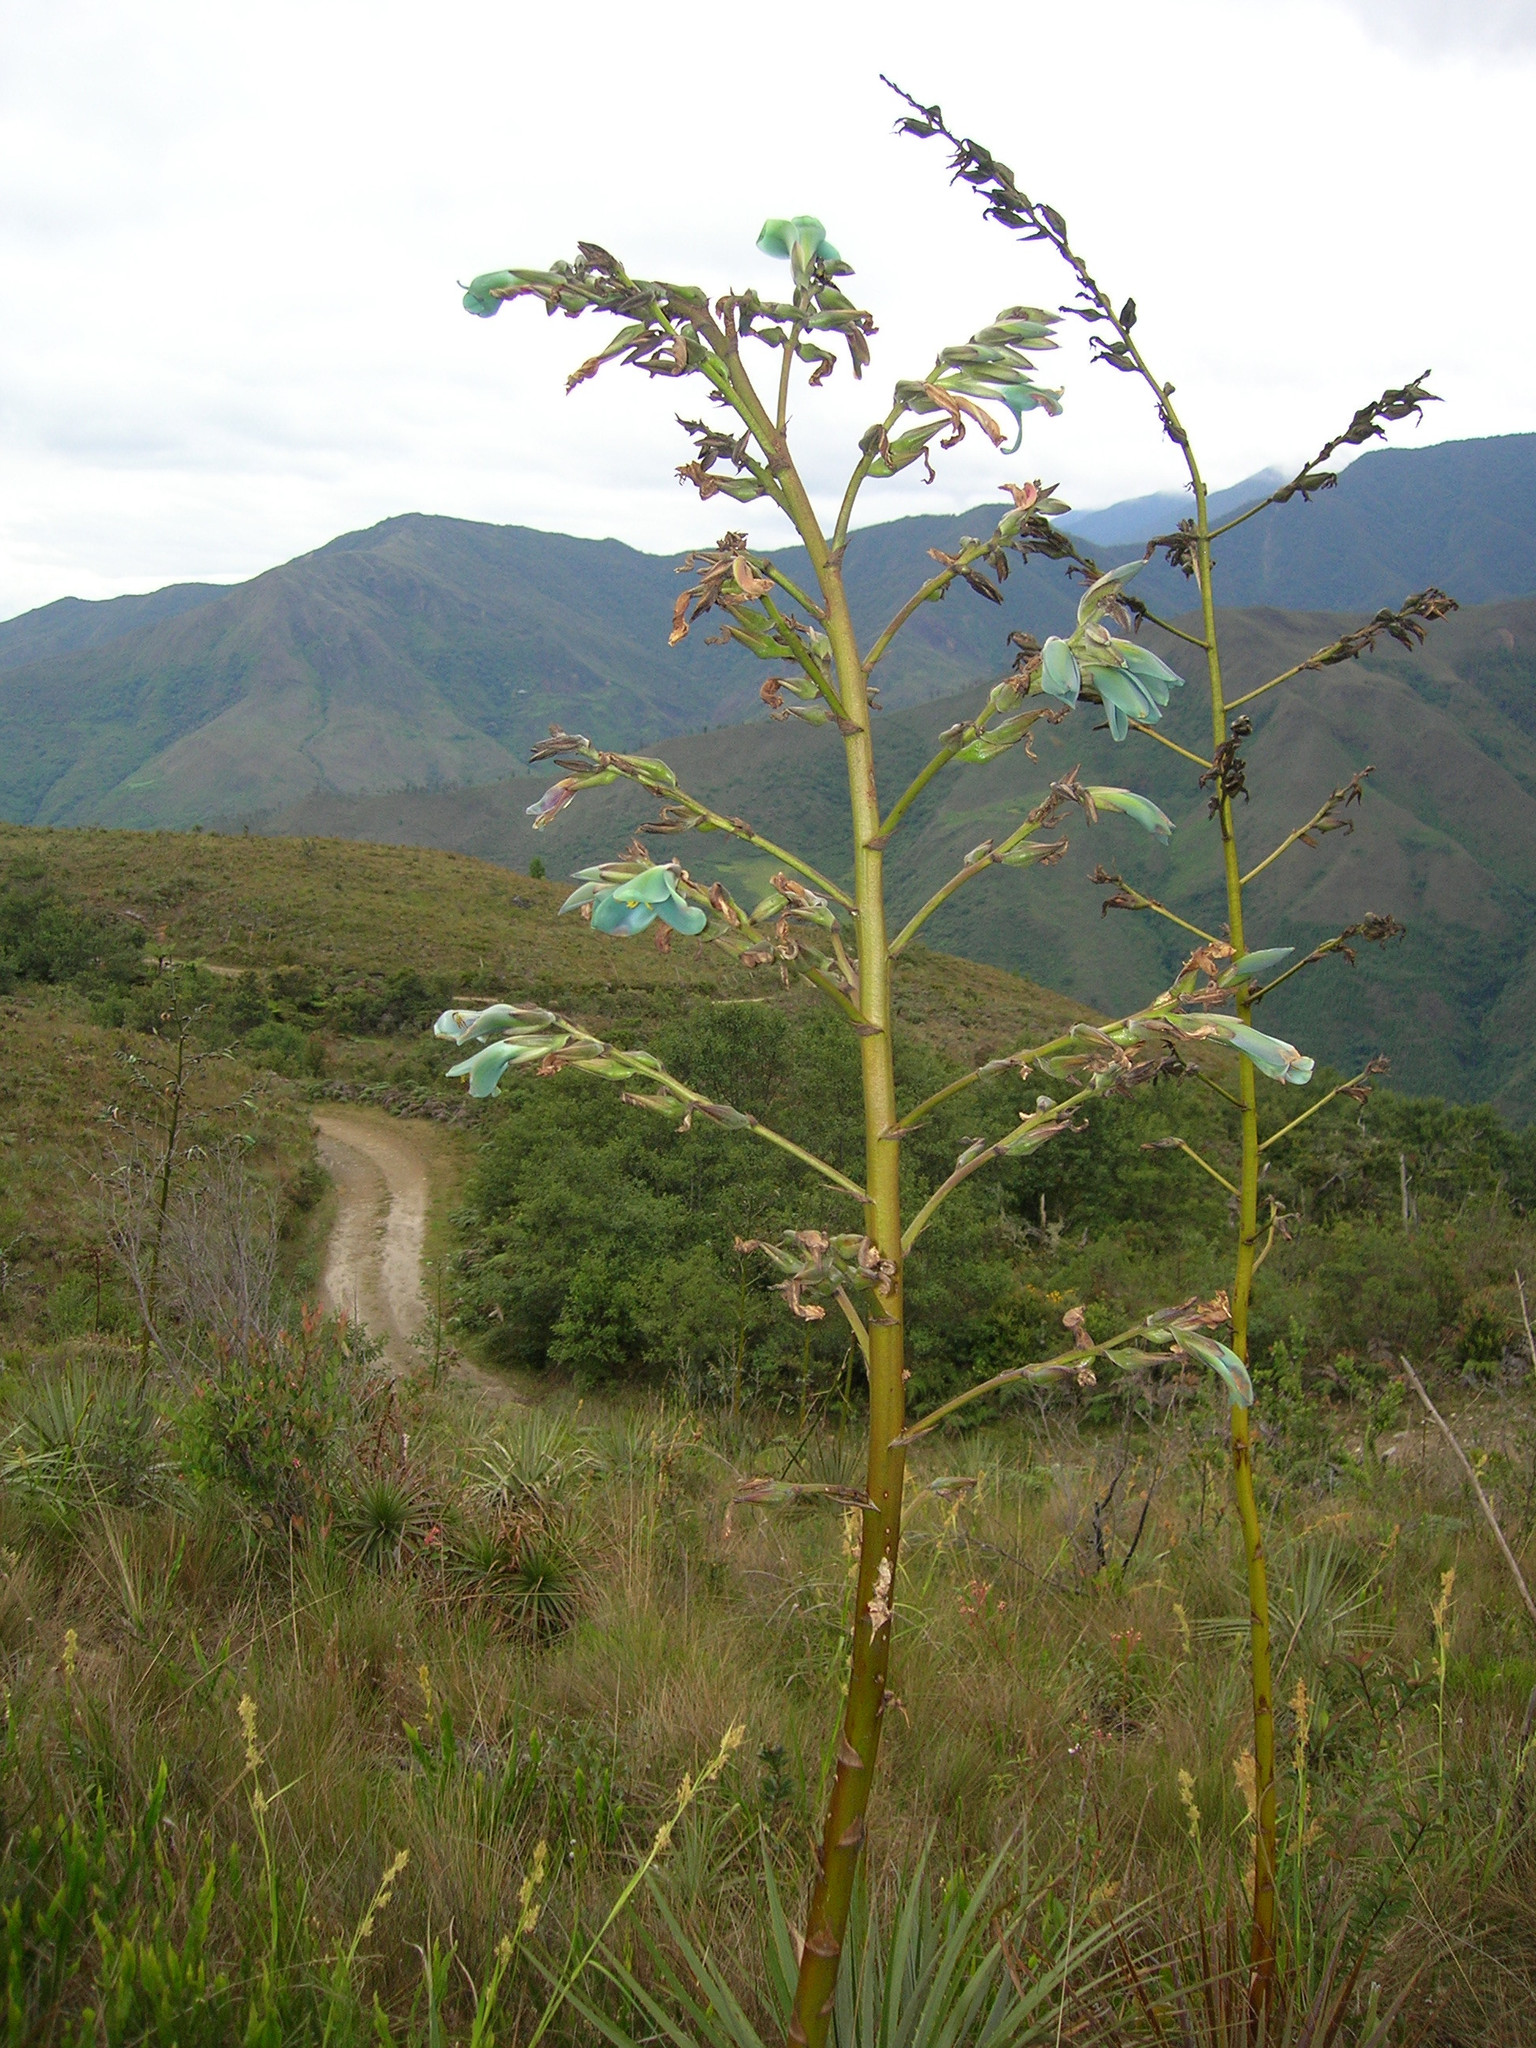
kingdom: Plantae
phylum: Tracheophyta
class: Liliopsida
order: Poales
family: Bromeliaceae
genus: Puya
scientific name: Puya obconica
